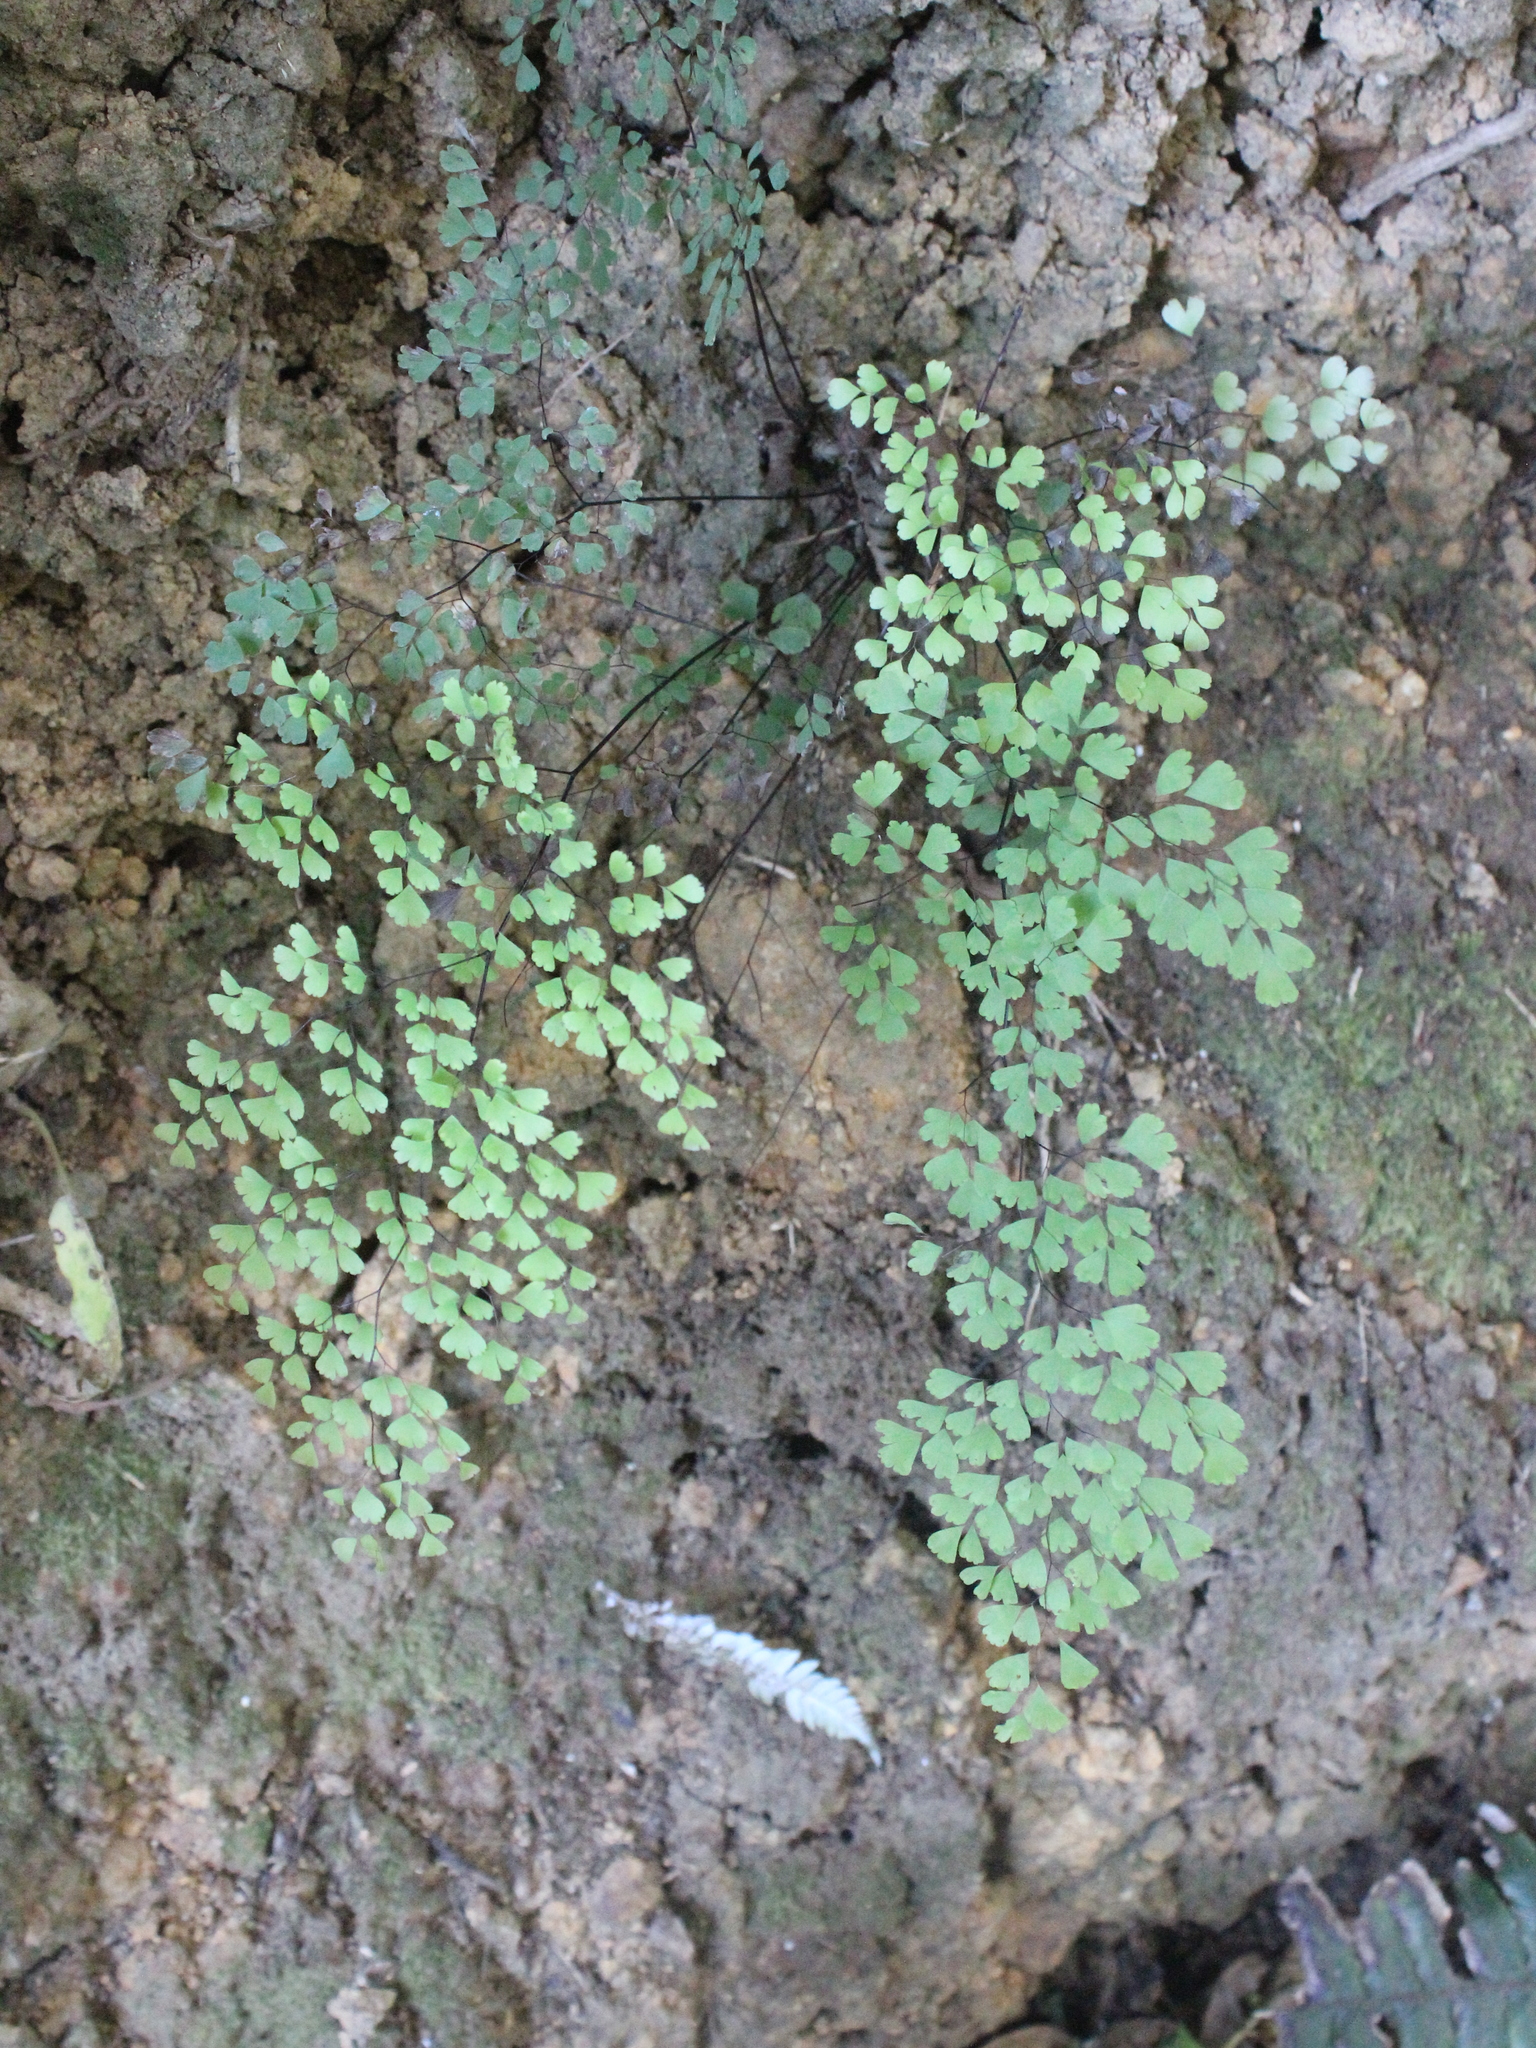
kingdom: Plantae
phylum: Tracheophyta
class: Polypodiopsida
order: Polypodiales
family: Pteridaceae
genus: Adiantum
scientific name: Adiantum raddianum
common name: Delta maidenhair fern
